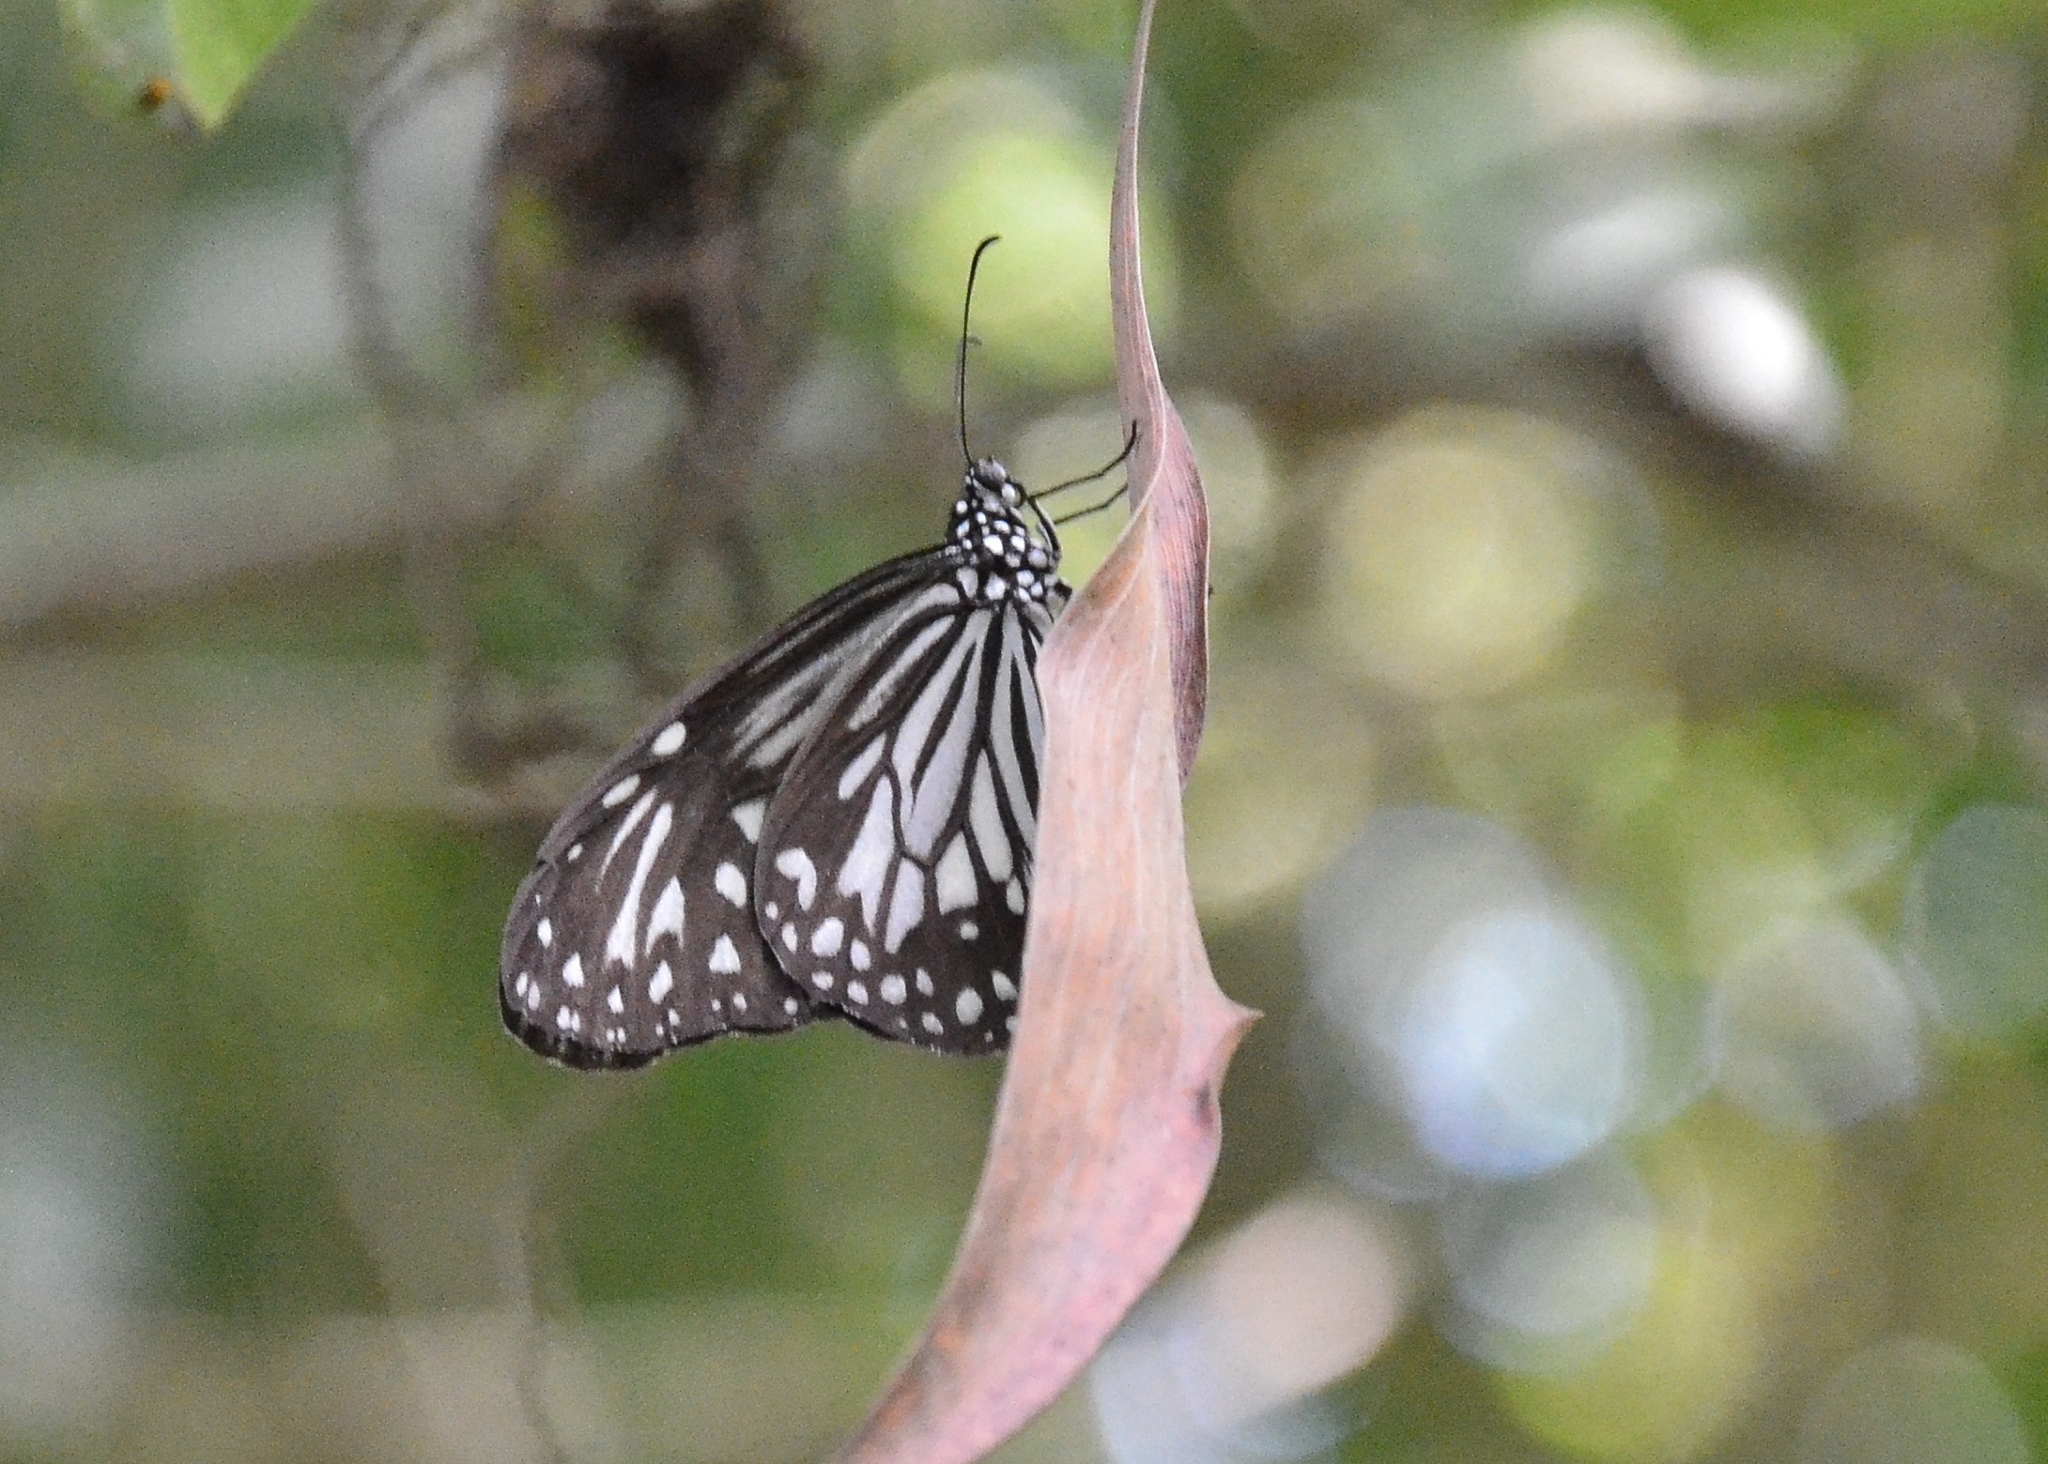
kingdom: Animalia
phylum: Arthropoda
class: Insecta
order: Lepidoptera
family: Nymphalidae
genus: Parantica
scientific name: Parantica aglea
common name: Glassy tiger
